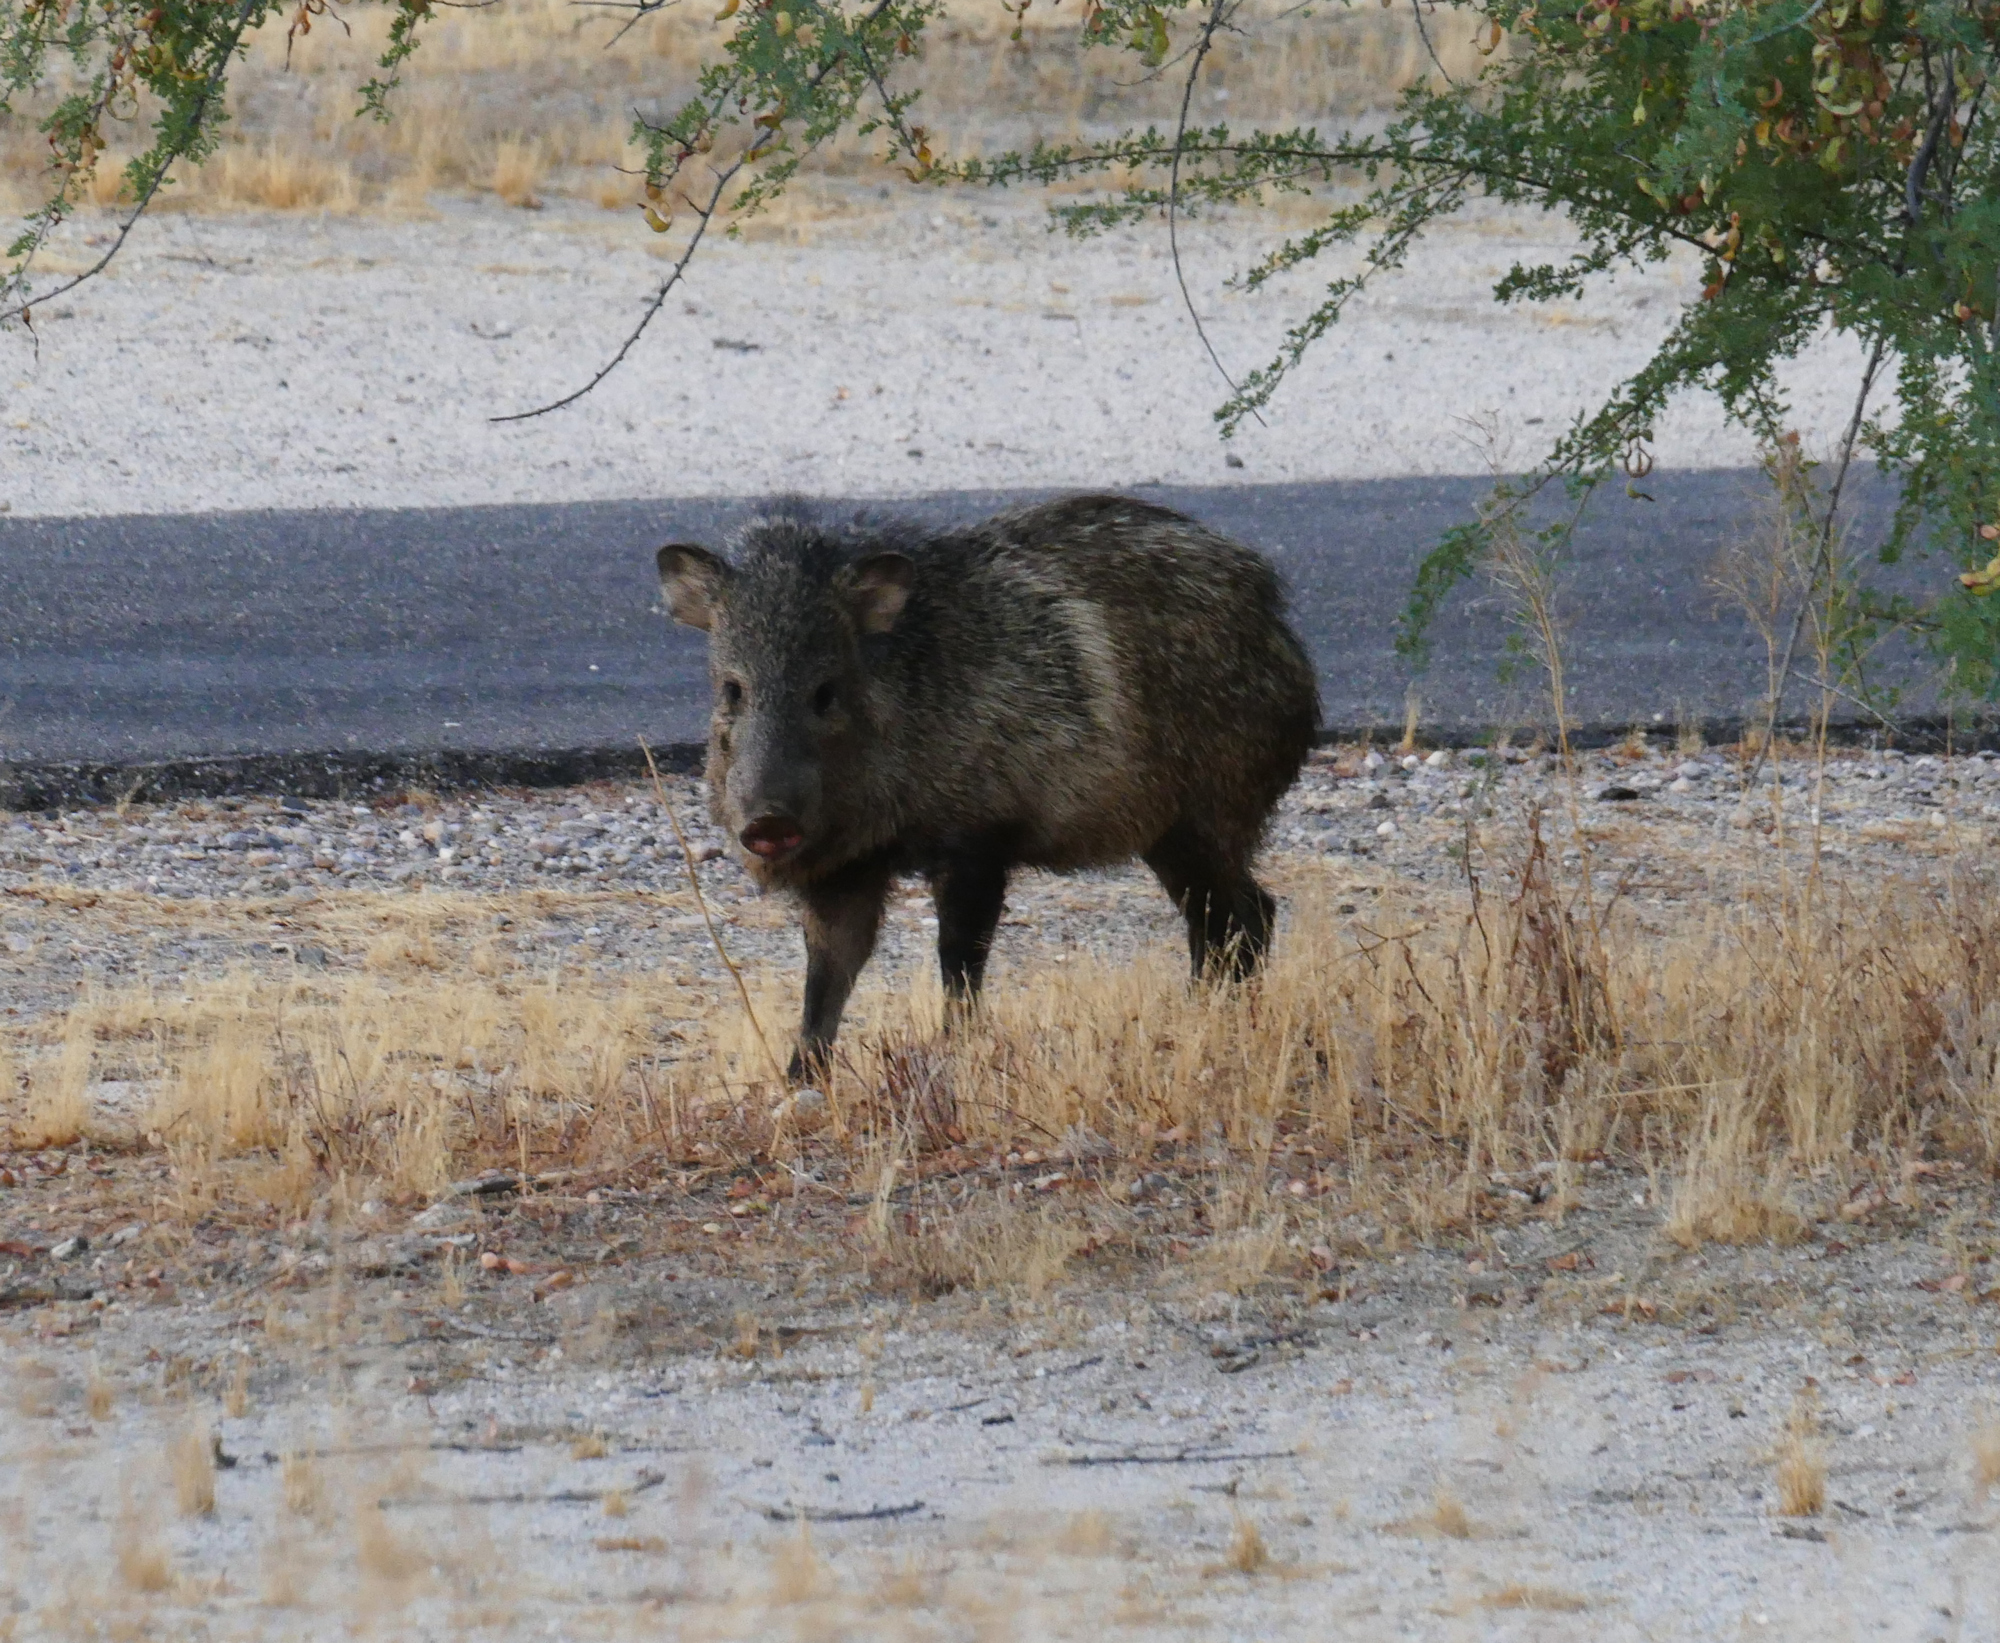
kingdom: Animalia
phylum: Chordata
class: Mammalia
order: Artiodactyla
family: Tayassuidae
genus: Pecari
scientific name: Pecari tajacu
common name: Collared peccary
